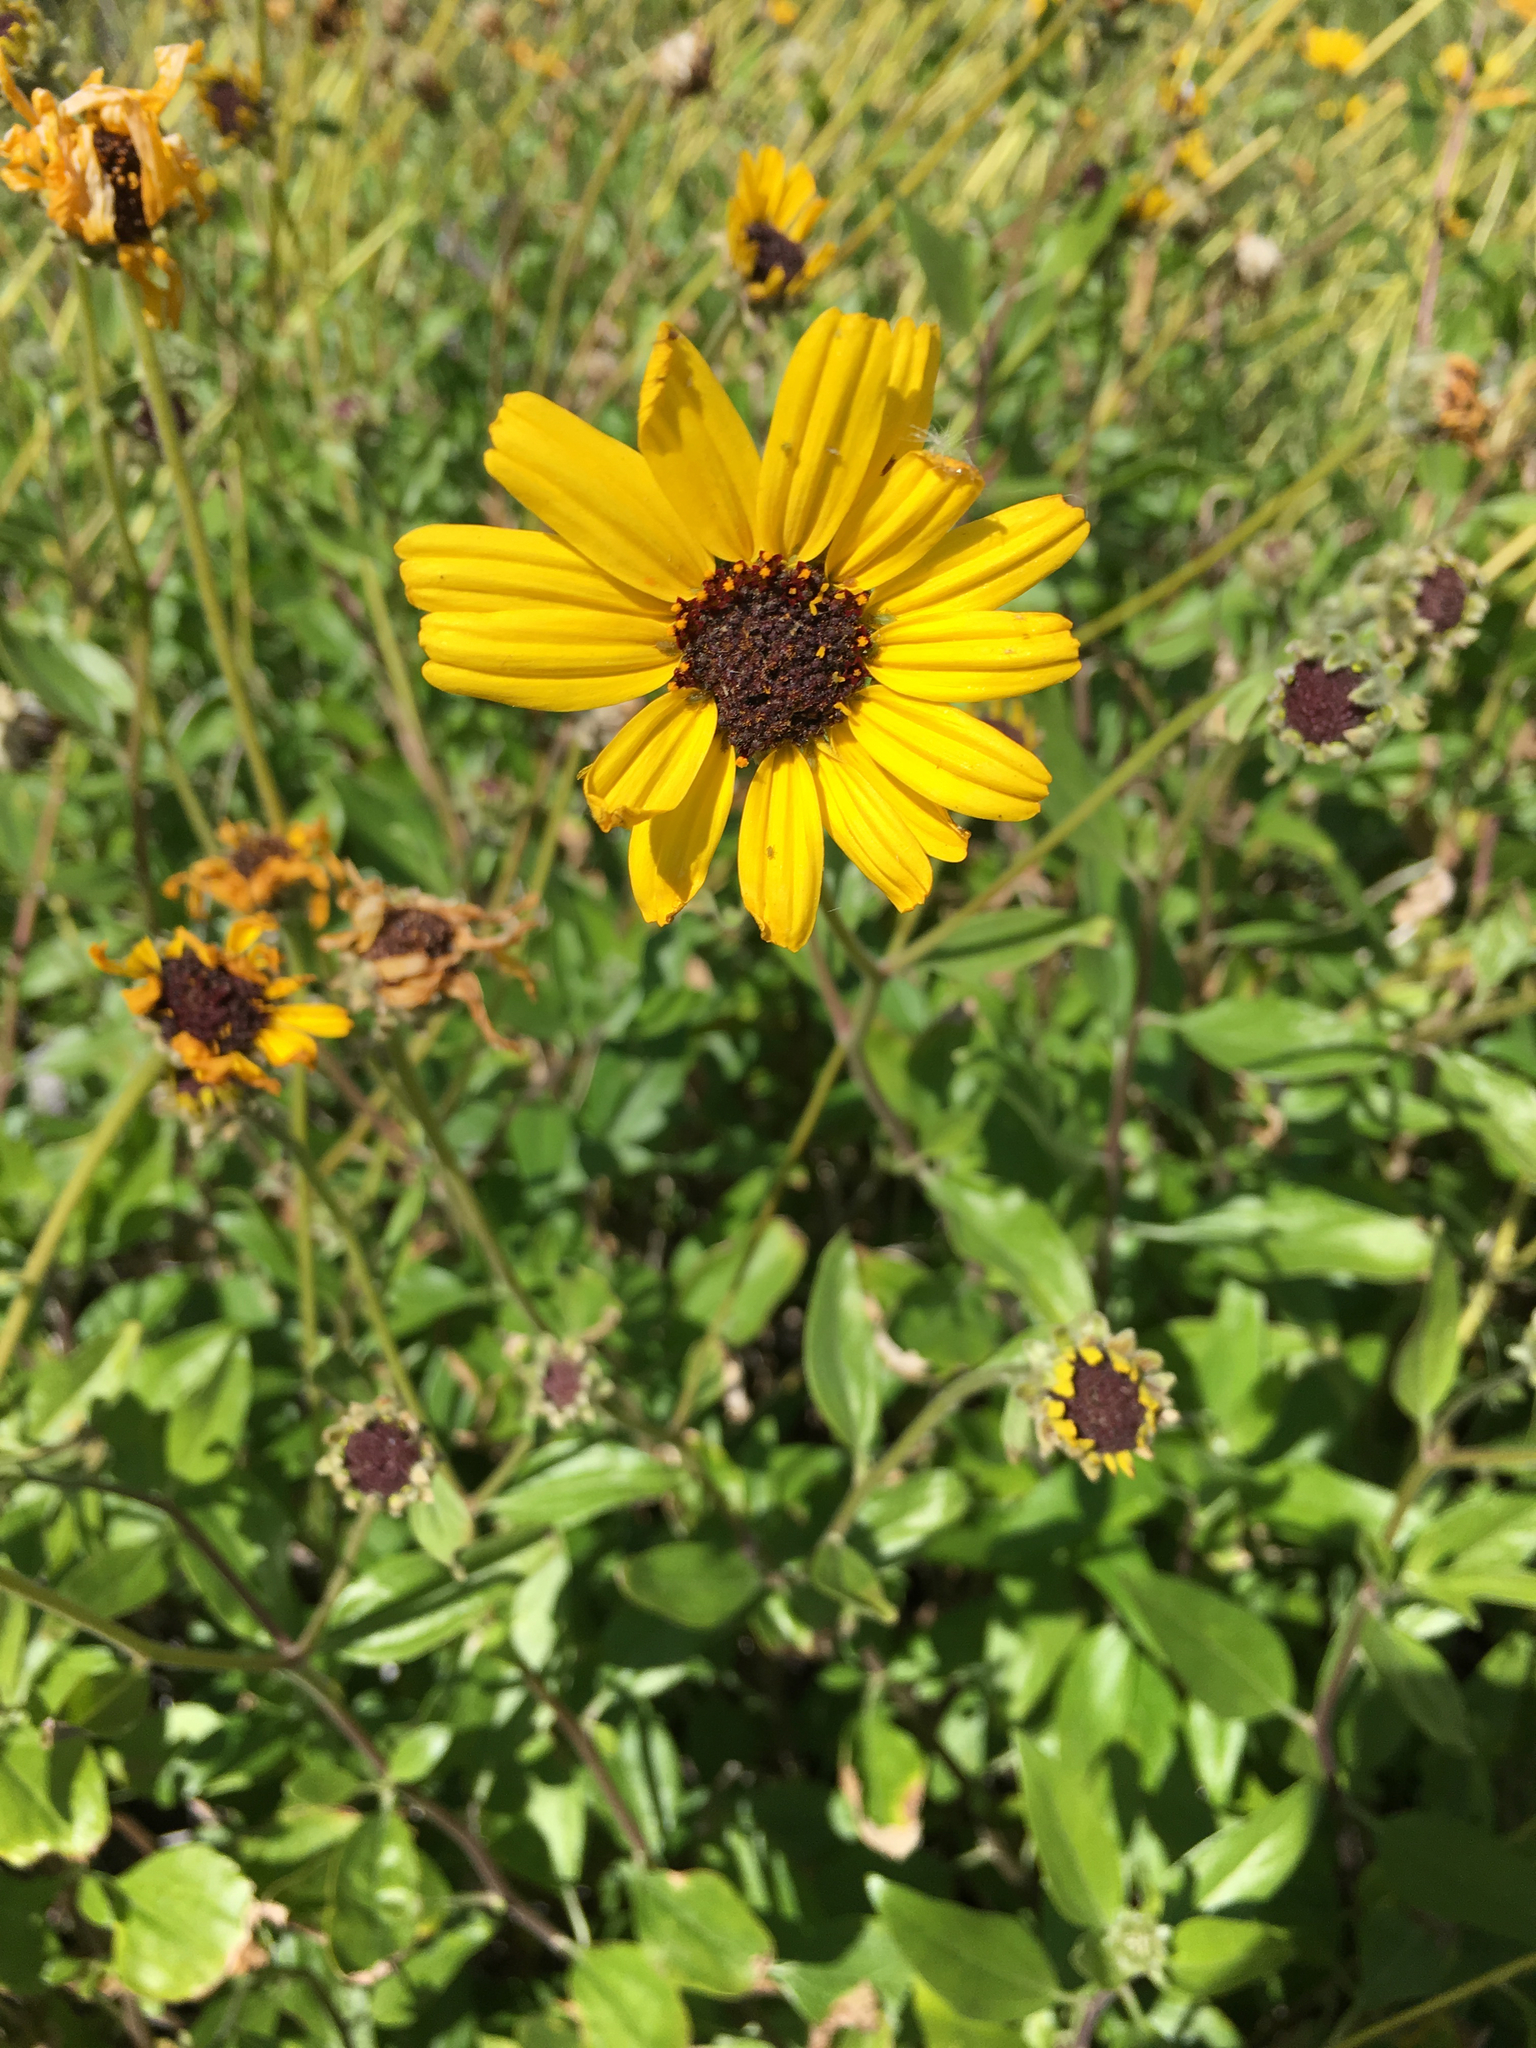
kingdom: Plantae
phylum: Tracheophyta
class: Magnoliopsida
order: Asterales
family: Asteraceae
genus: Encelia
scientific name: Encelia californica
